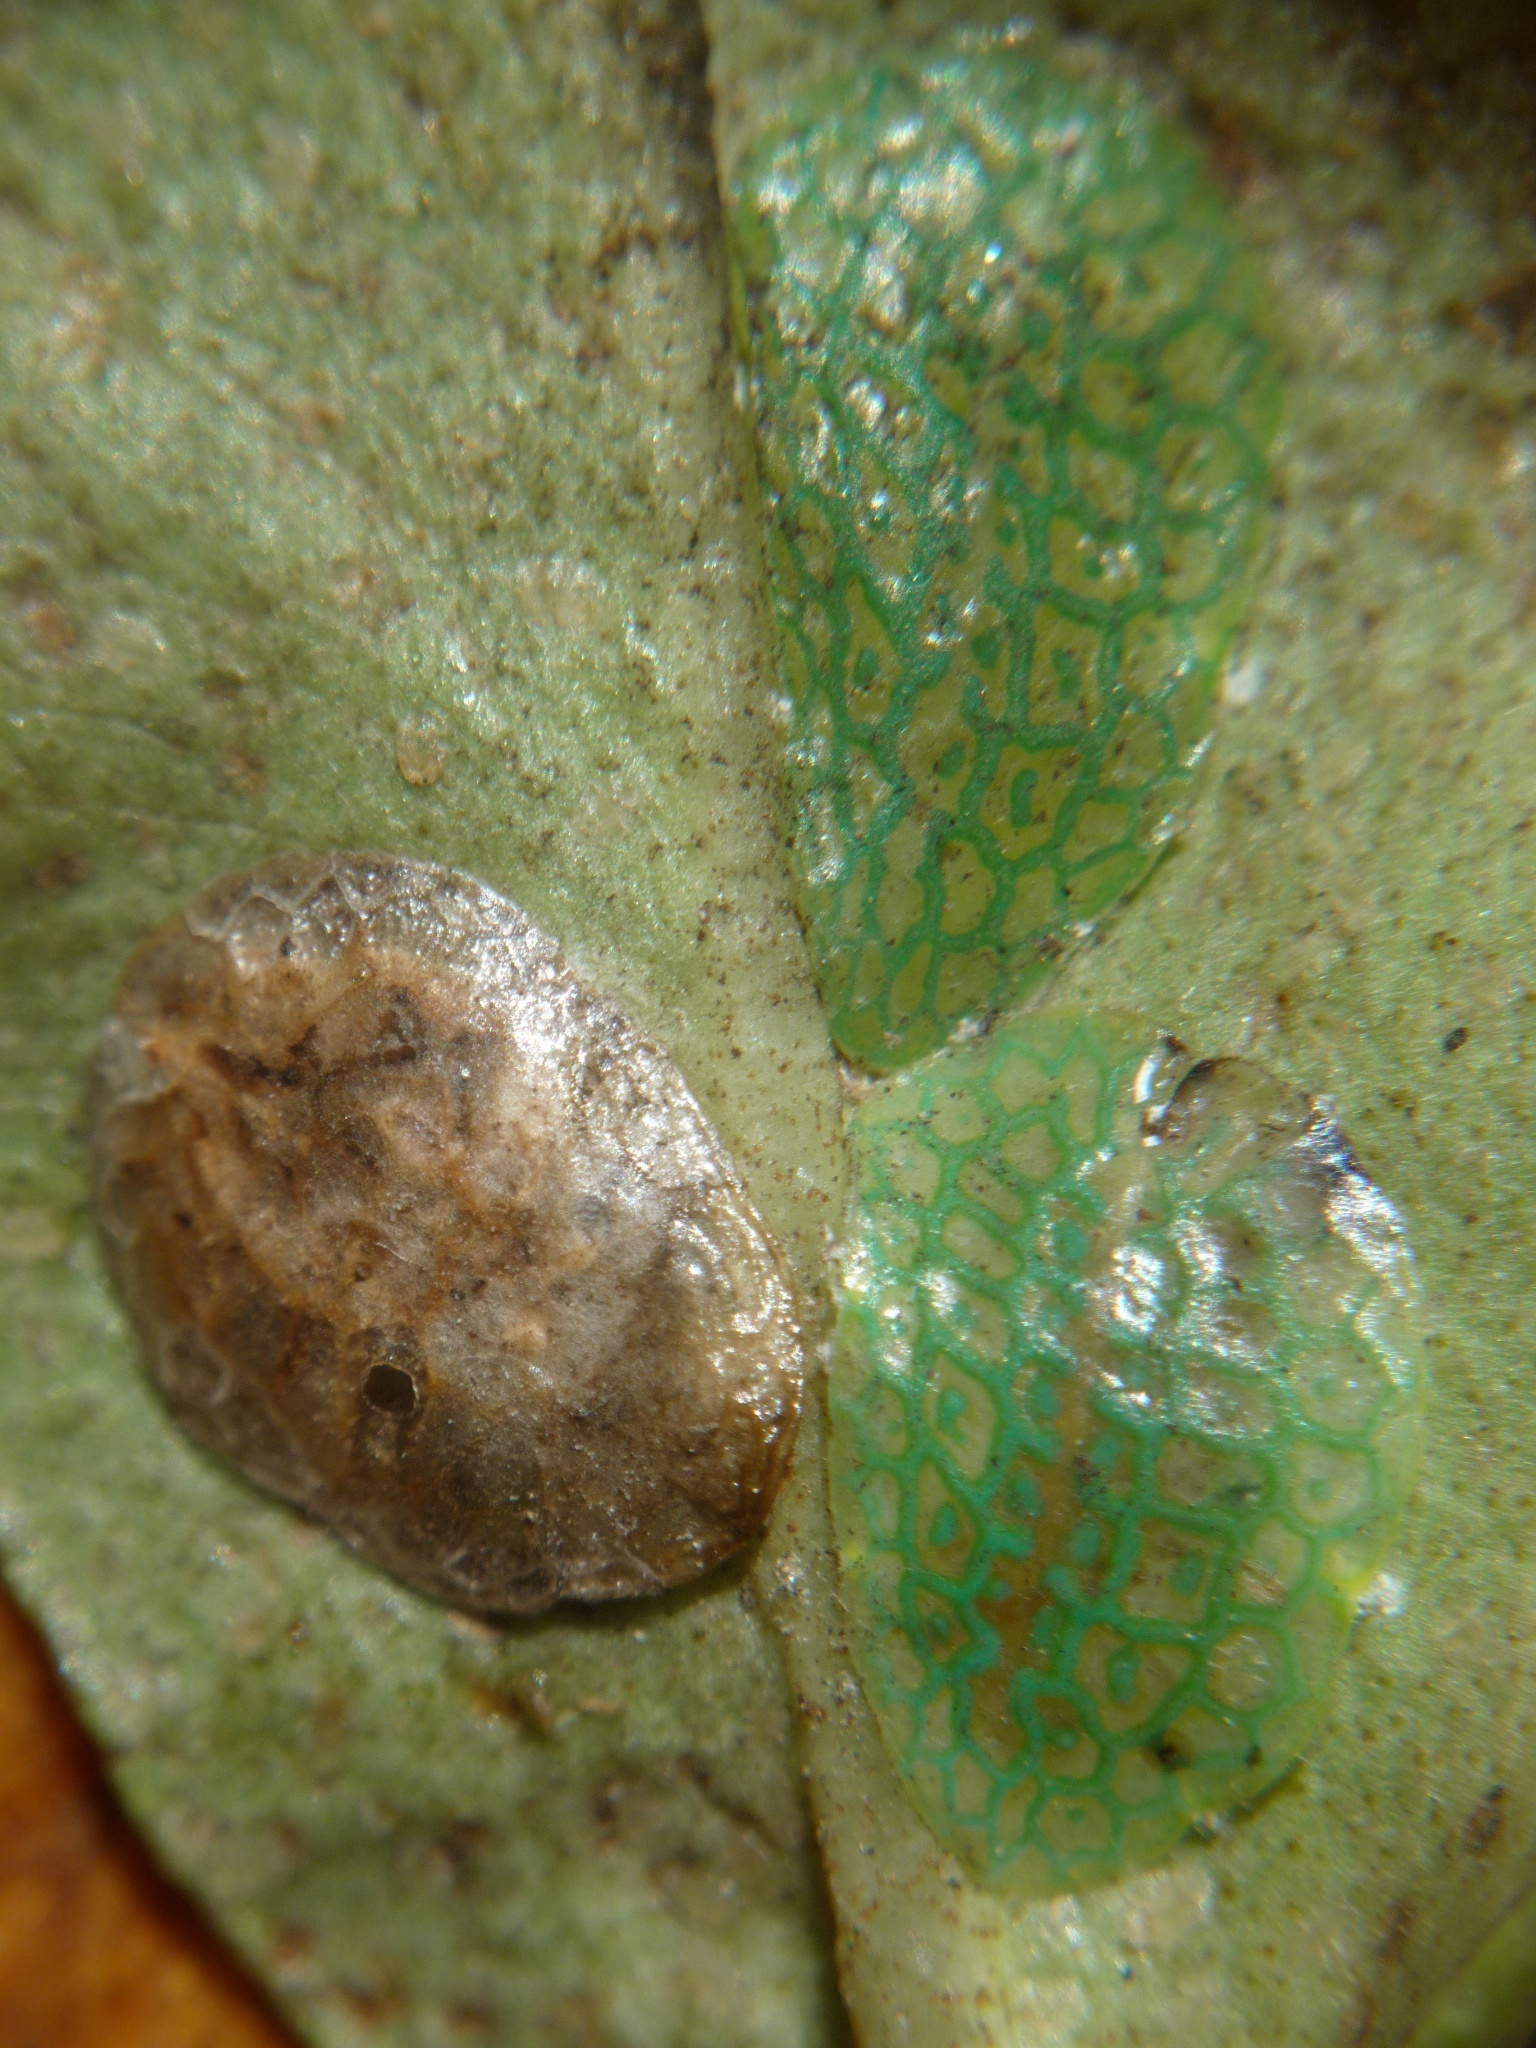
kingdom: Animalia
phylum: Arthropoda
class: Insecta
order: Hemiptera
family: Coccidae
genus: Ctenochiton
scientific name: Ctenochiton chelyon
